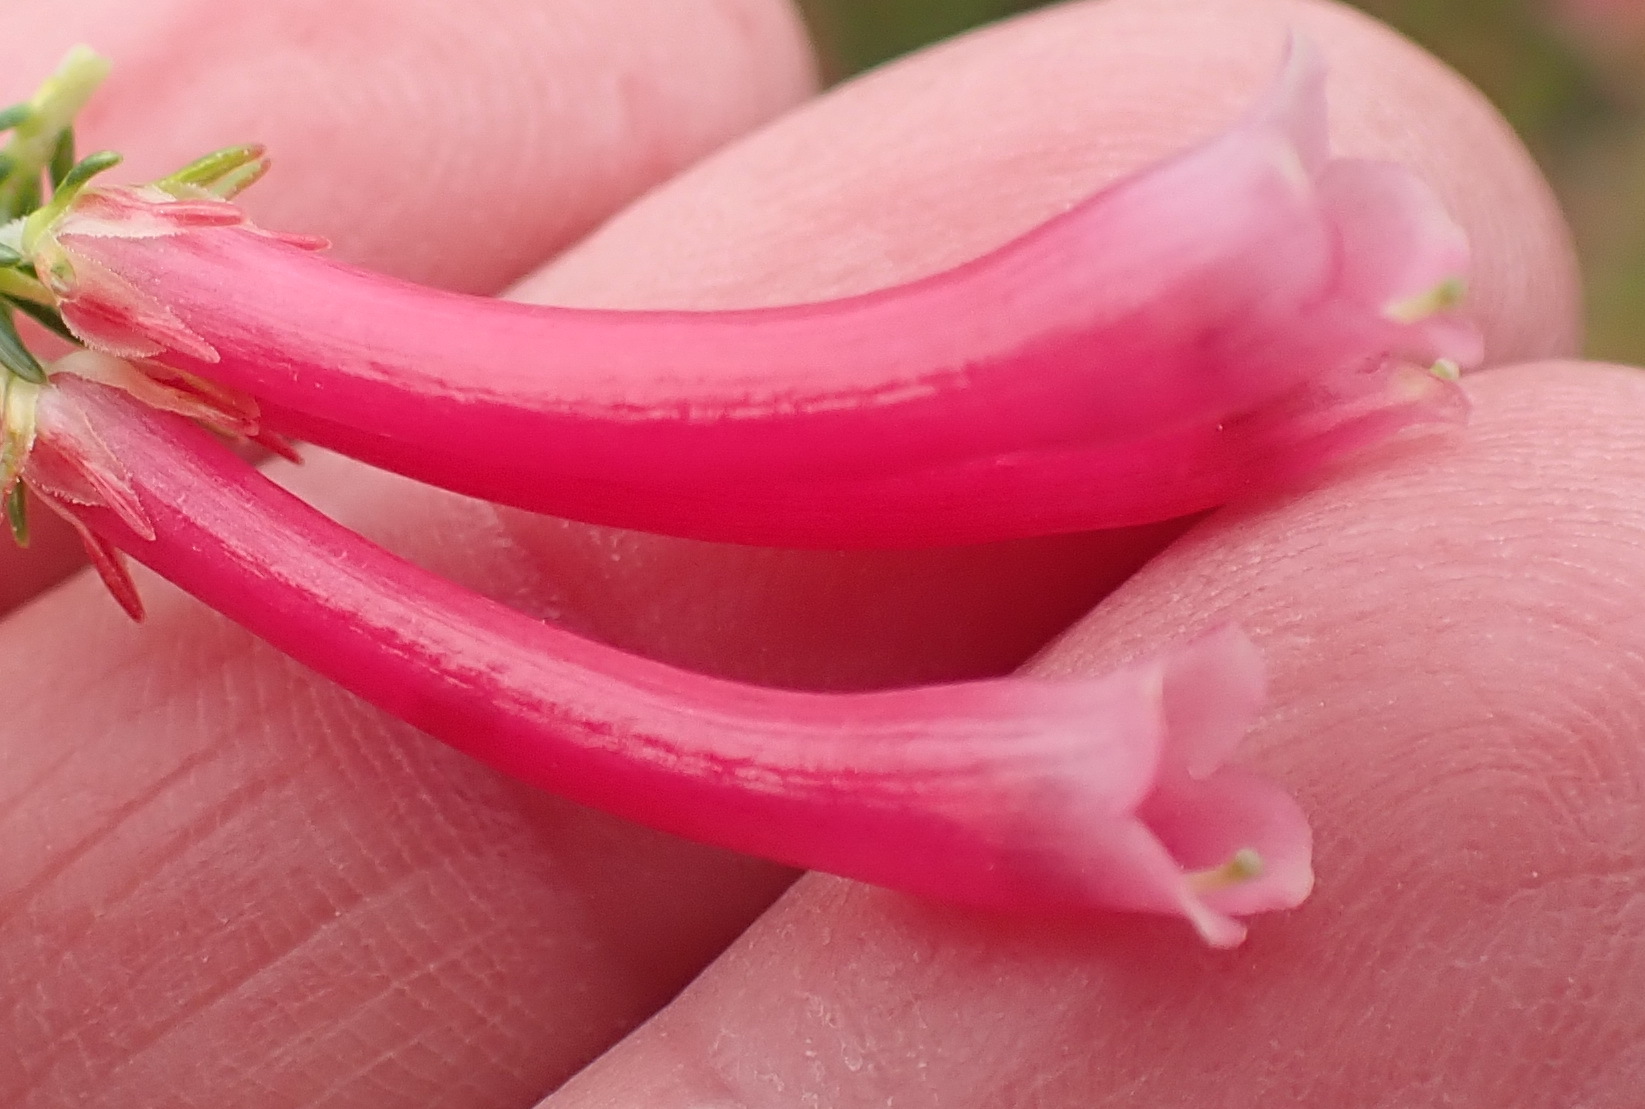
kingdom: Plantae
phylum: Tracheophyta
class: Magnoliopsida
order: Ericales
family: Ericaceae
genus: Erica
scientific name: Erica discolor
